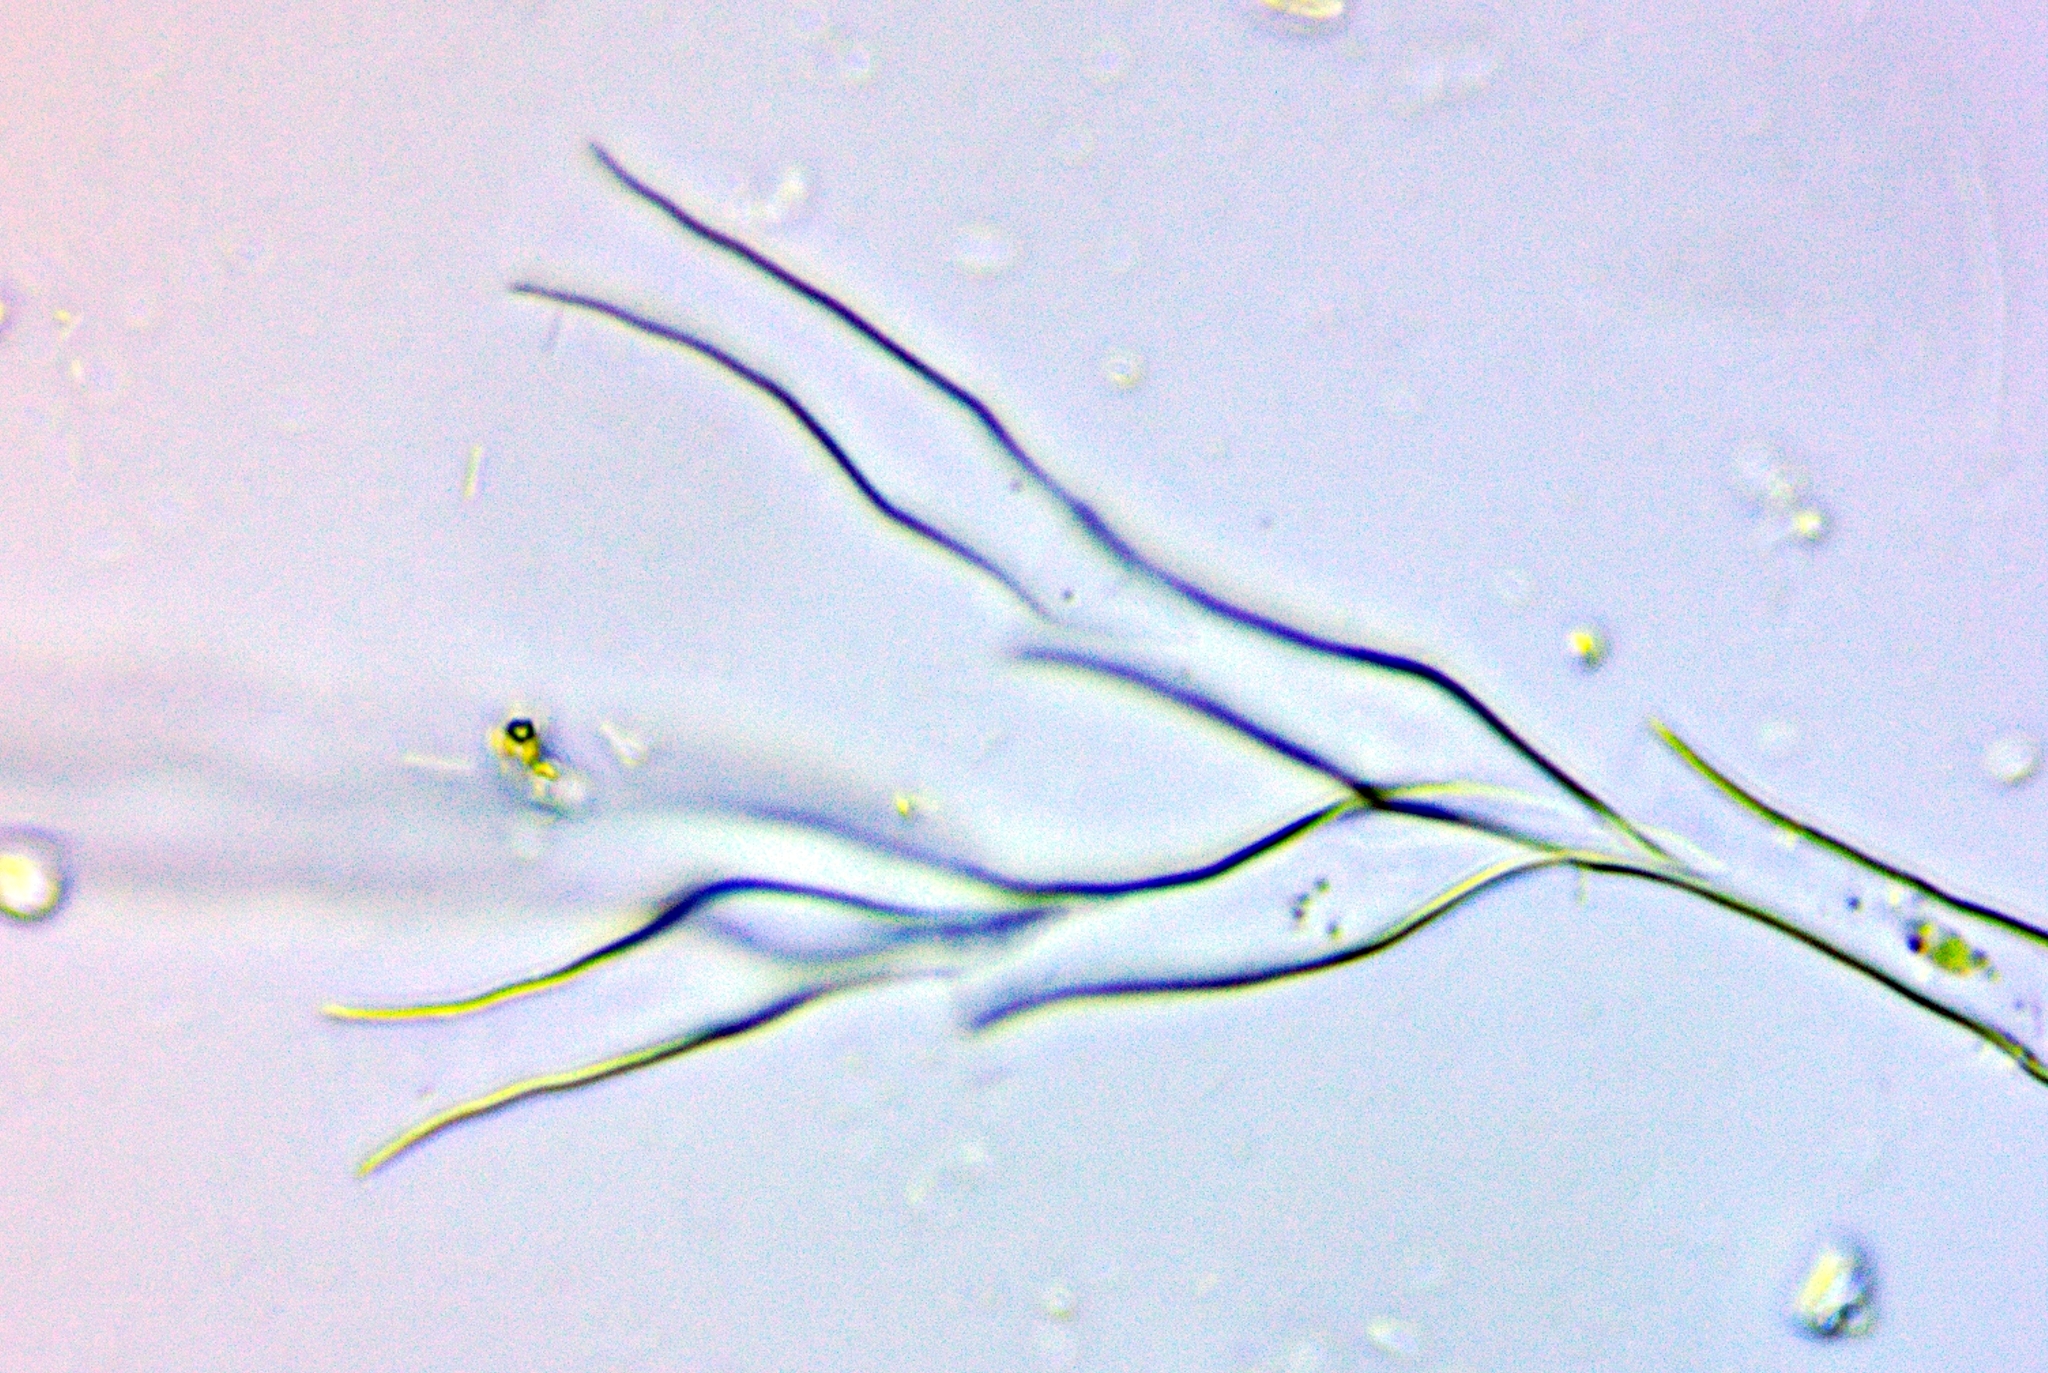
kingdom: Chromista
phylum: Ochrophyta
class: Chrysophyceae
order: Chromulinales
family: Dinobryaceae
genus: Dinobryon
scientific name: Dinobryon pediforme
